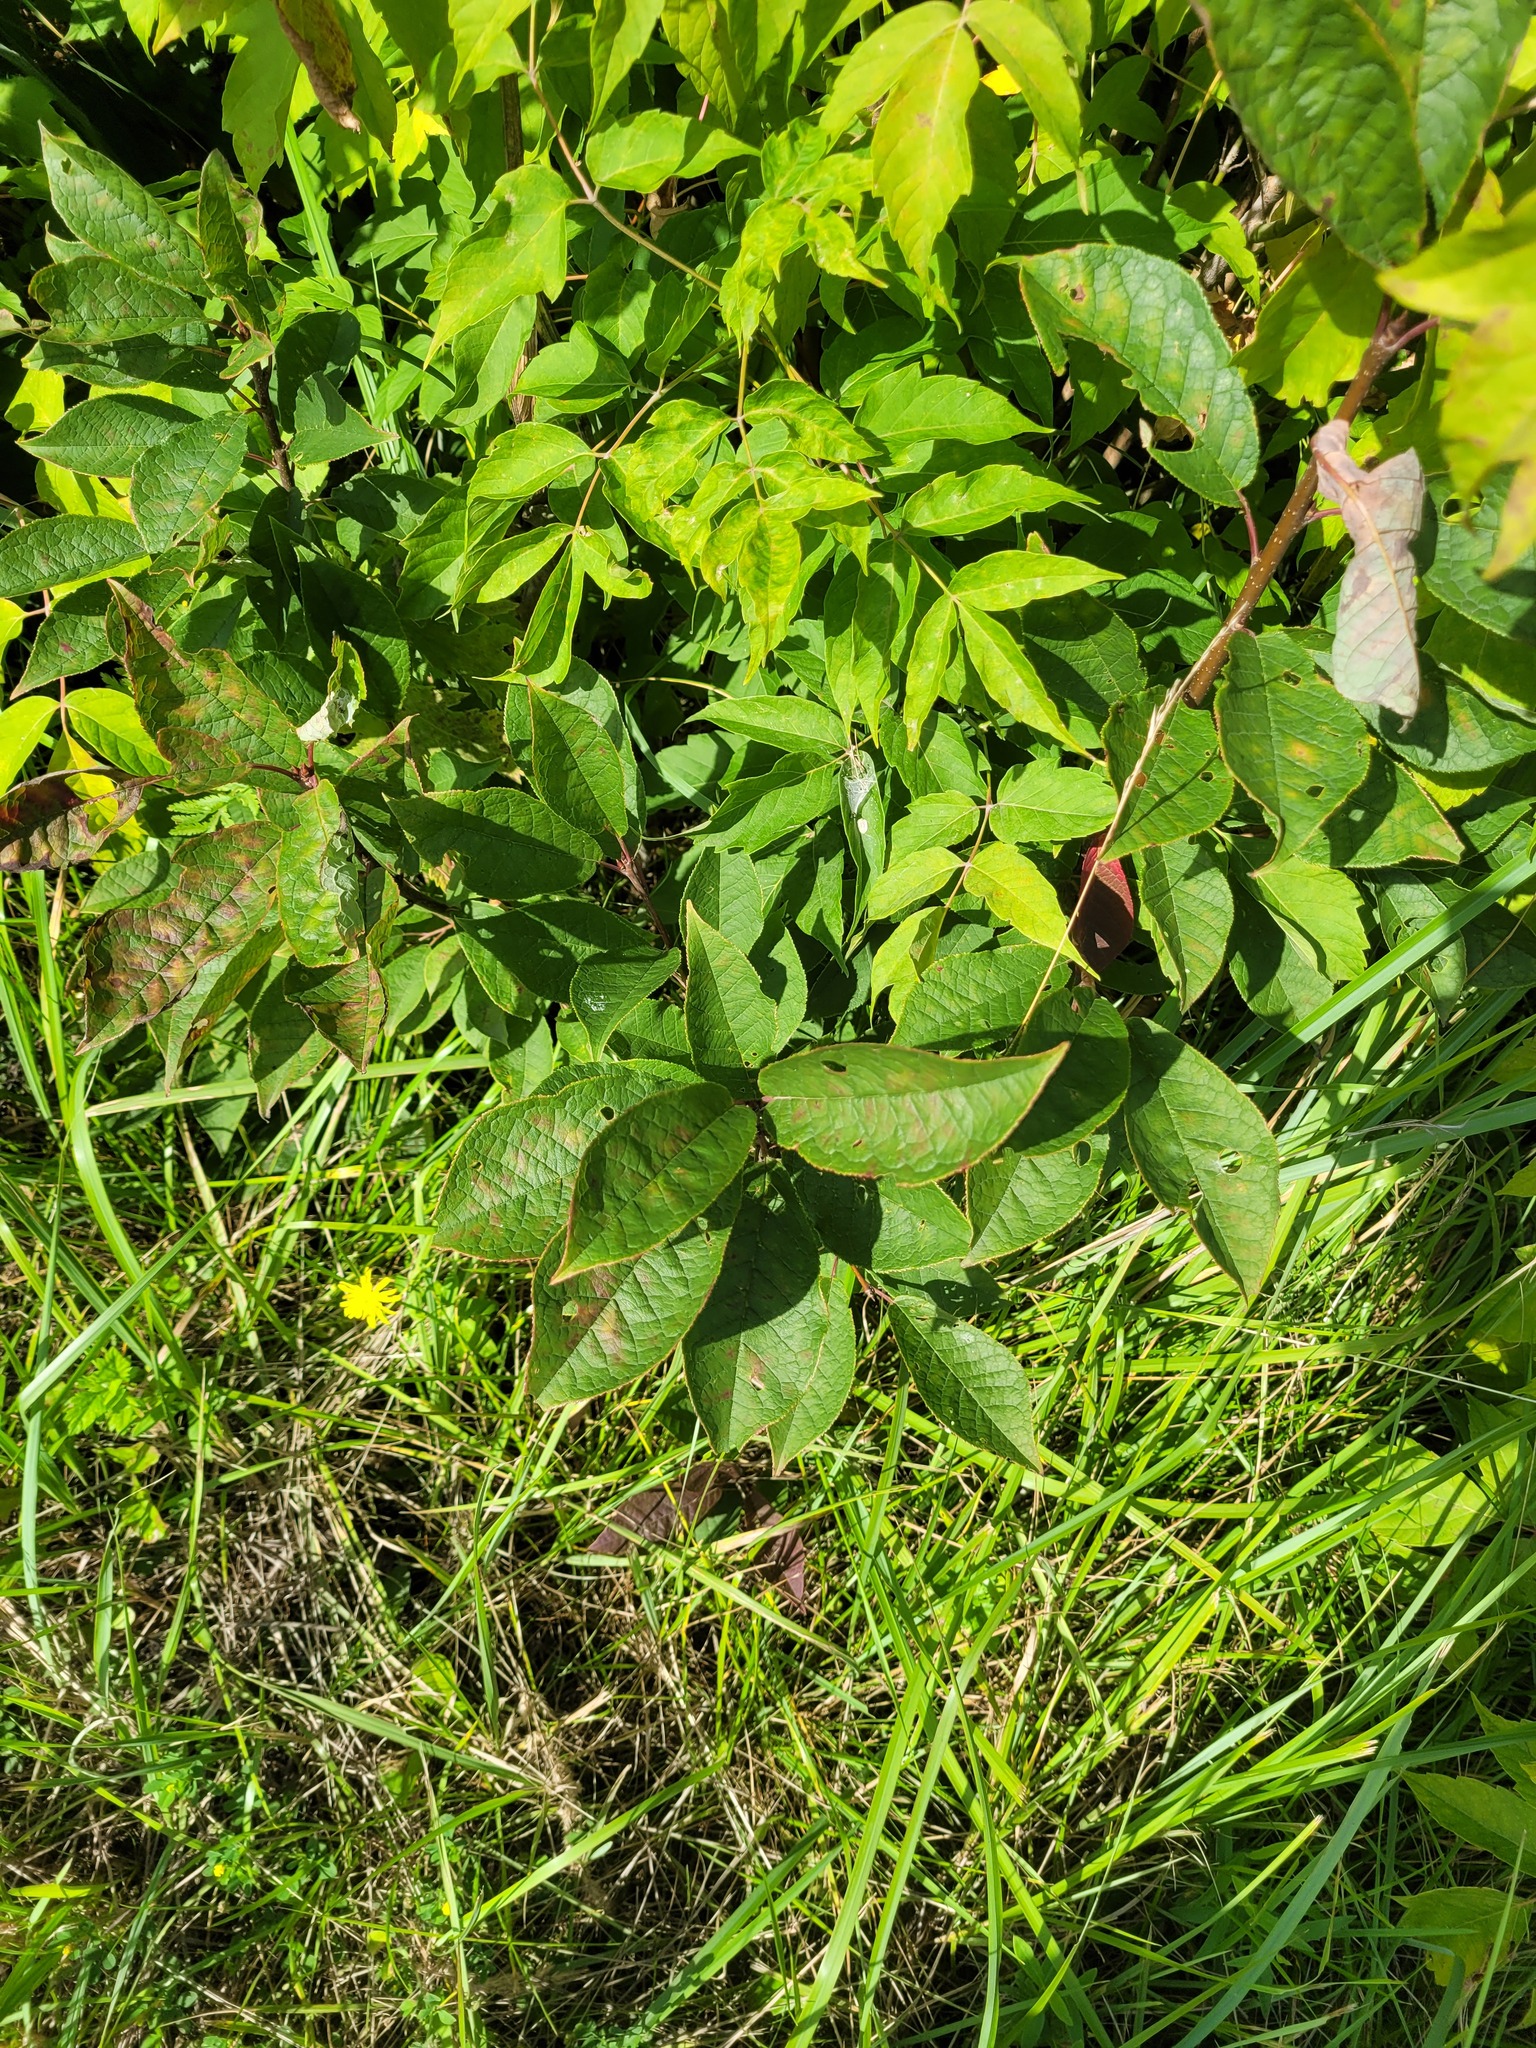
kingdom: Plantae
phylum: Tracheophyta
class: Magnoliopsida
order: Rosales
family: Rosaceae
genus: Prunus
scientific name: Prunus padus
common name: Bird cherry
